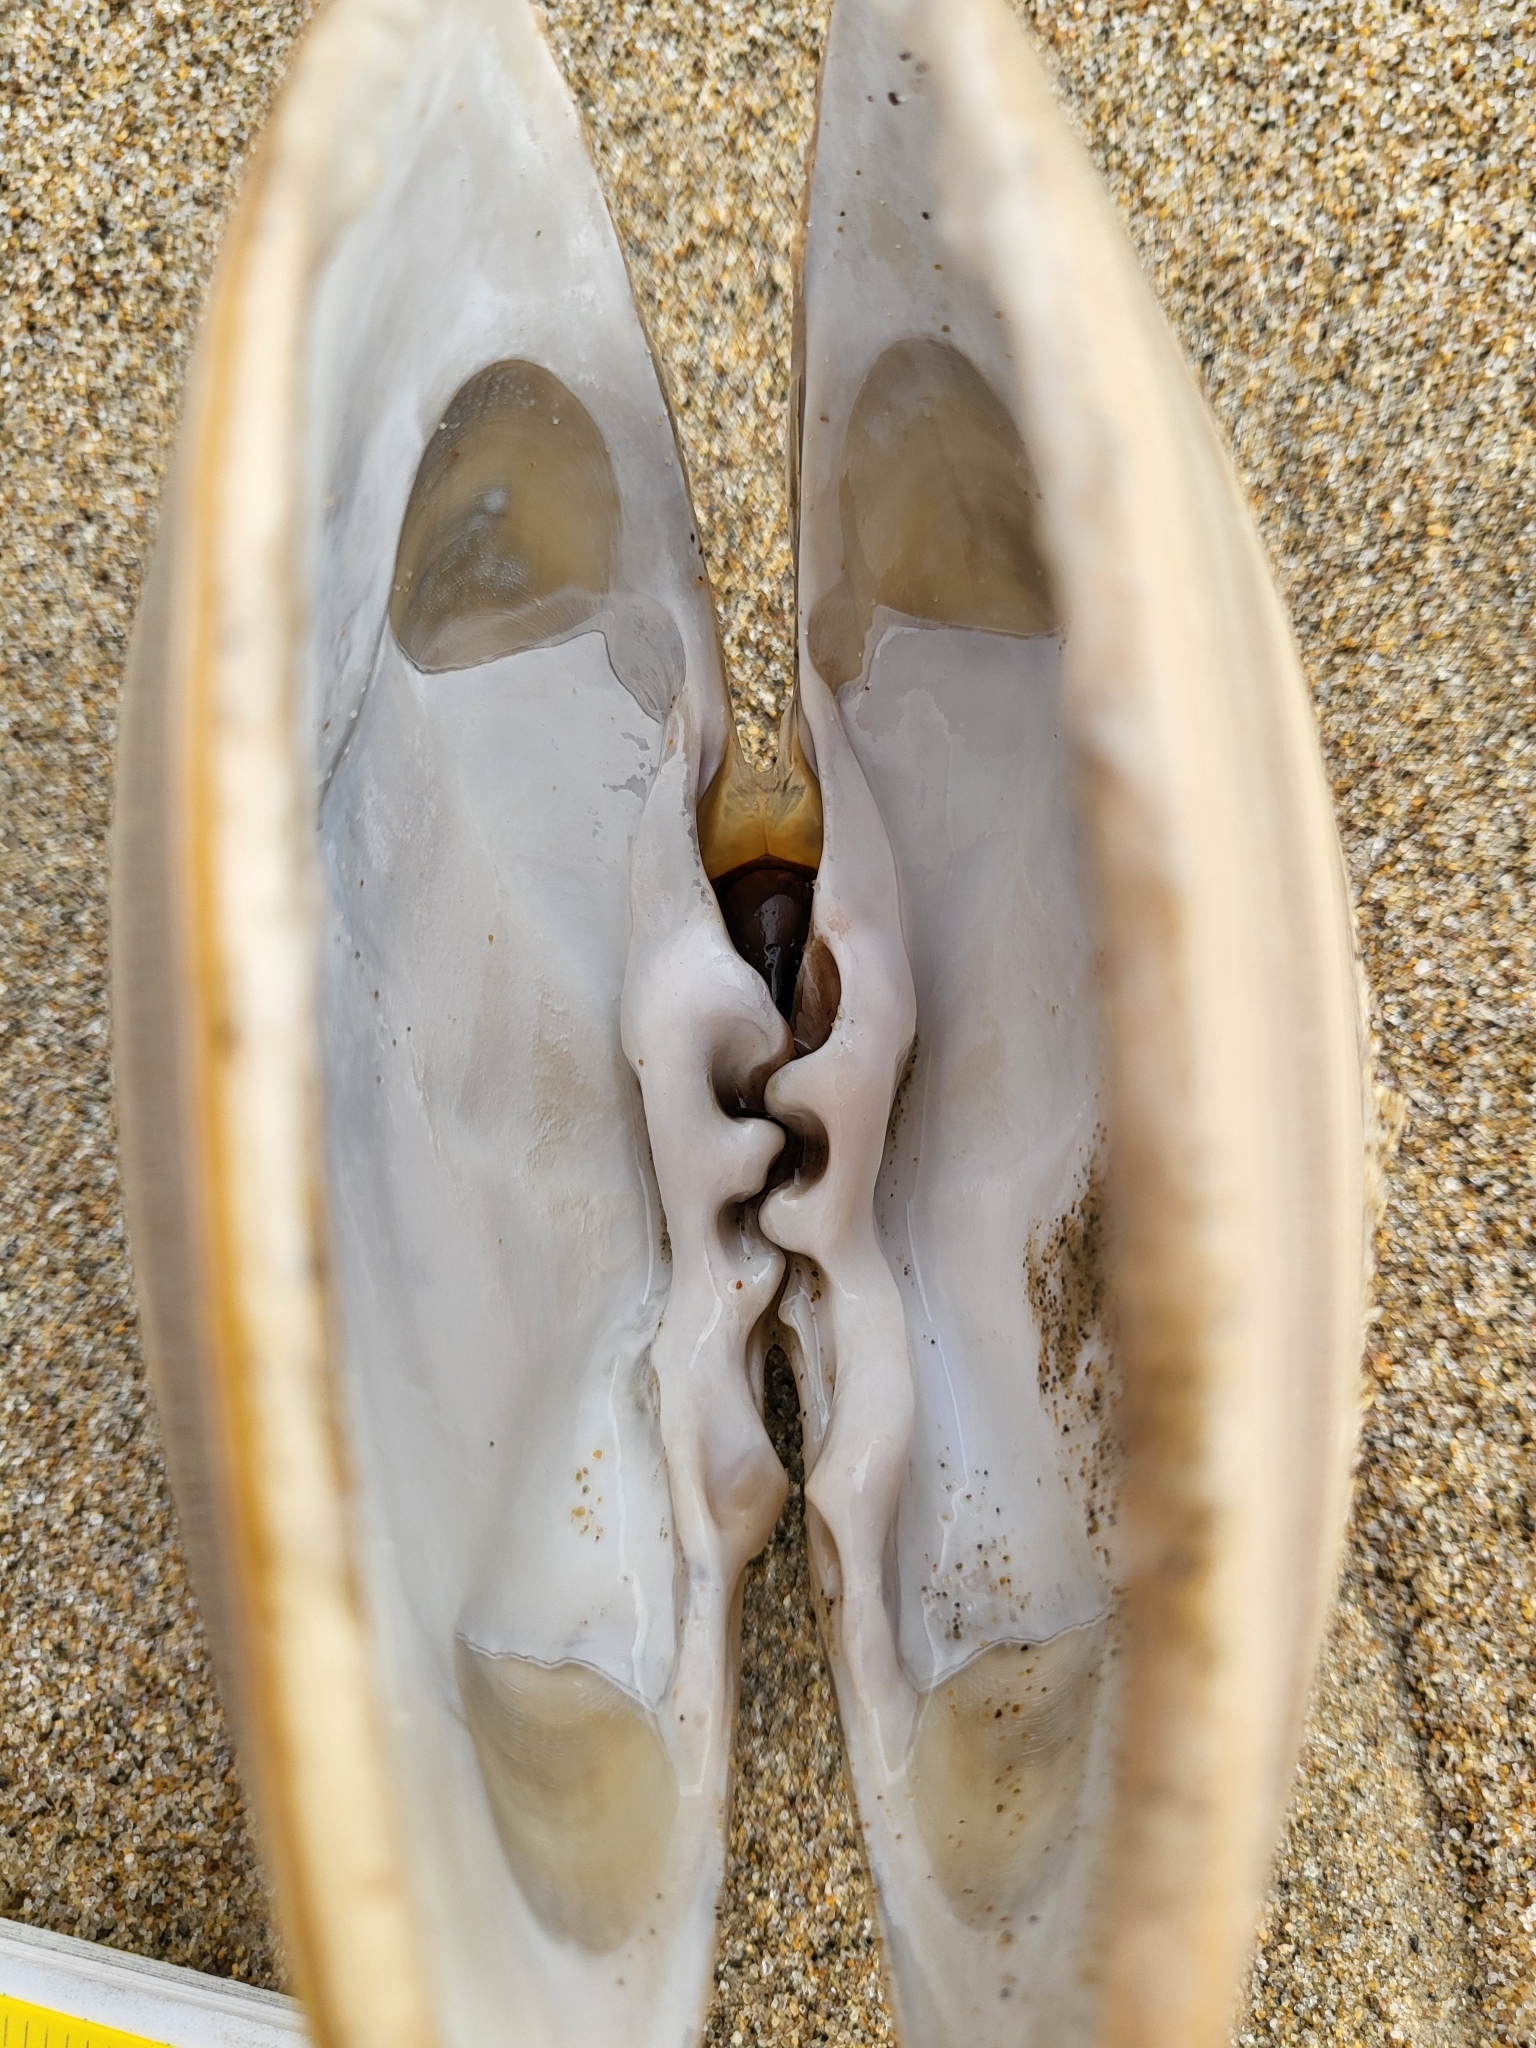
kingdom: Animalia
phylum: Mollusca
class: Bivalvia
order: Venerida
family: Veneridae
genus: Tivela
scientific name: Tivela stultorum
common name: Pismo clam
